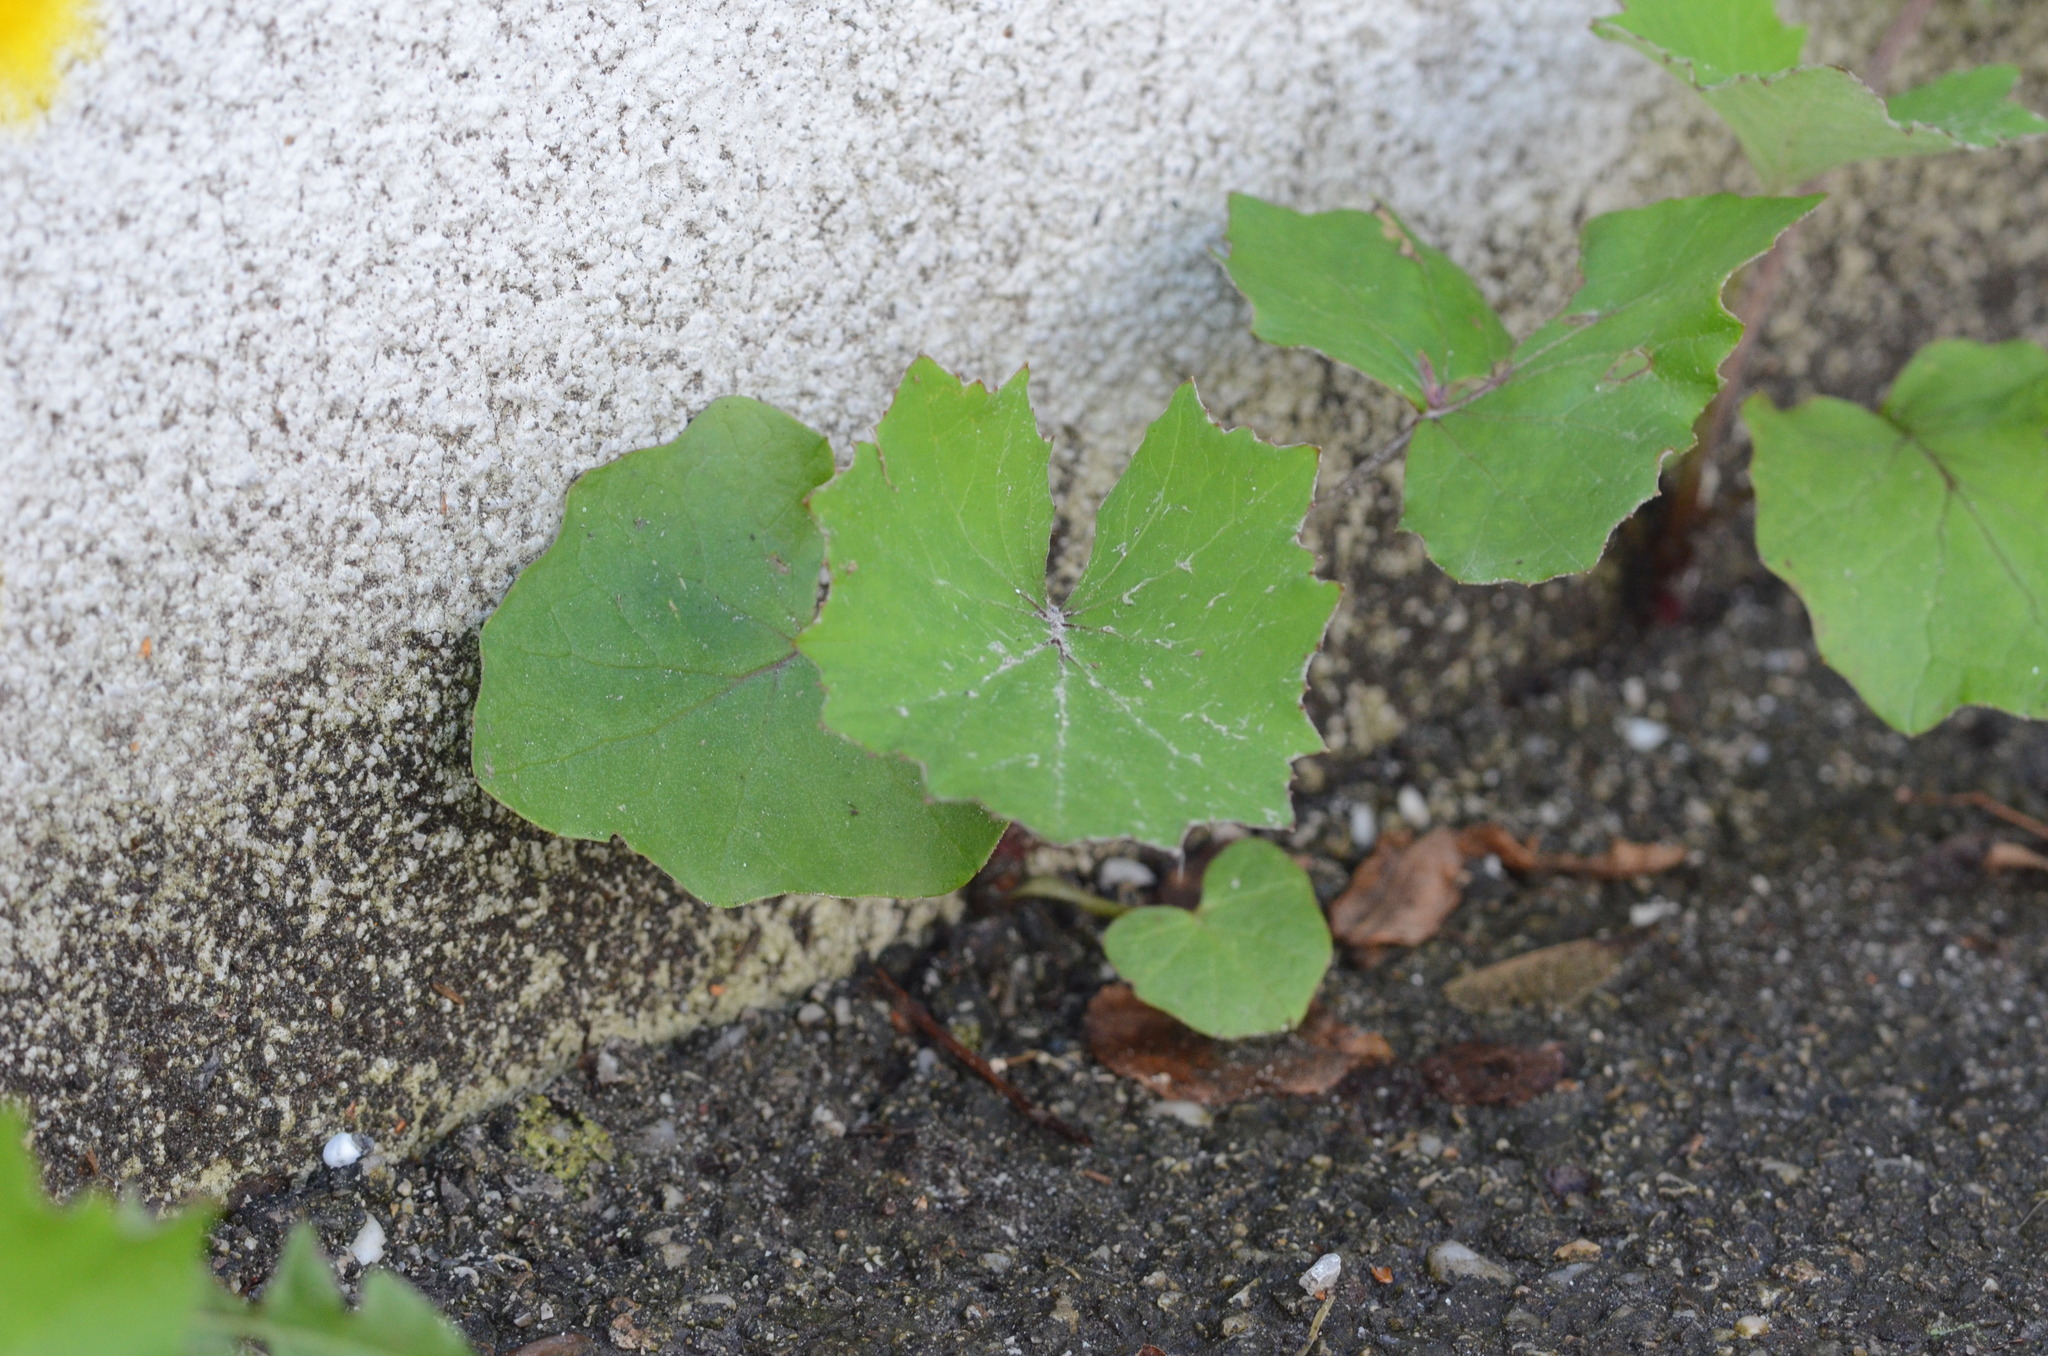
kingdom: Plantae
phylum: Tracheophyta
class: Magnoliopsida
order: Asterales
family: Asteraceae
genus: Tussilago
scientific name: Tussilago farfara
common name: Coltsfoot
